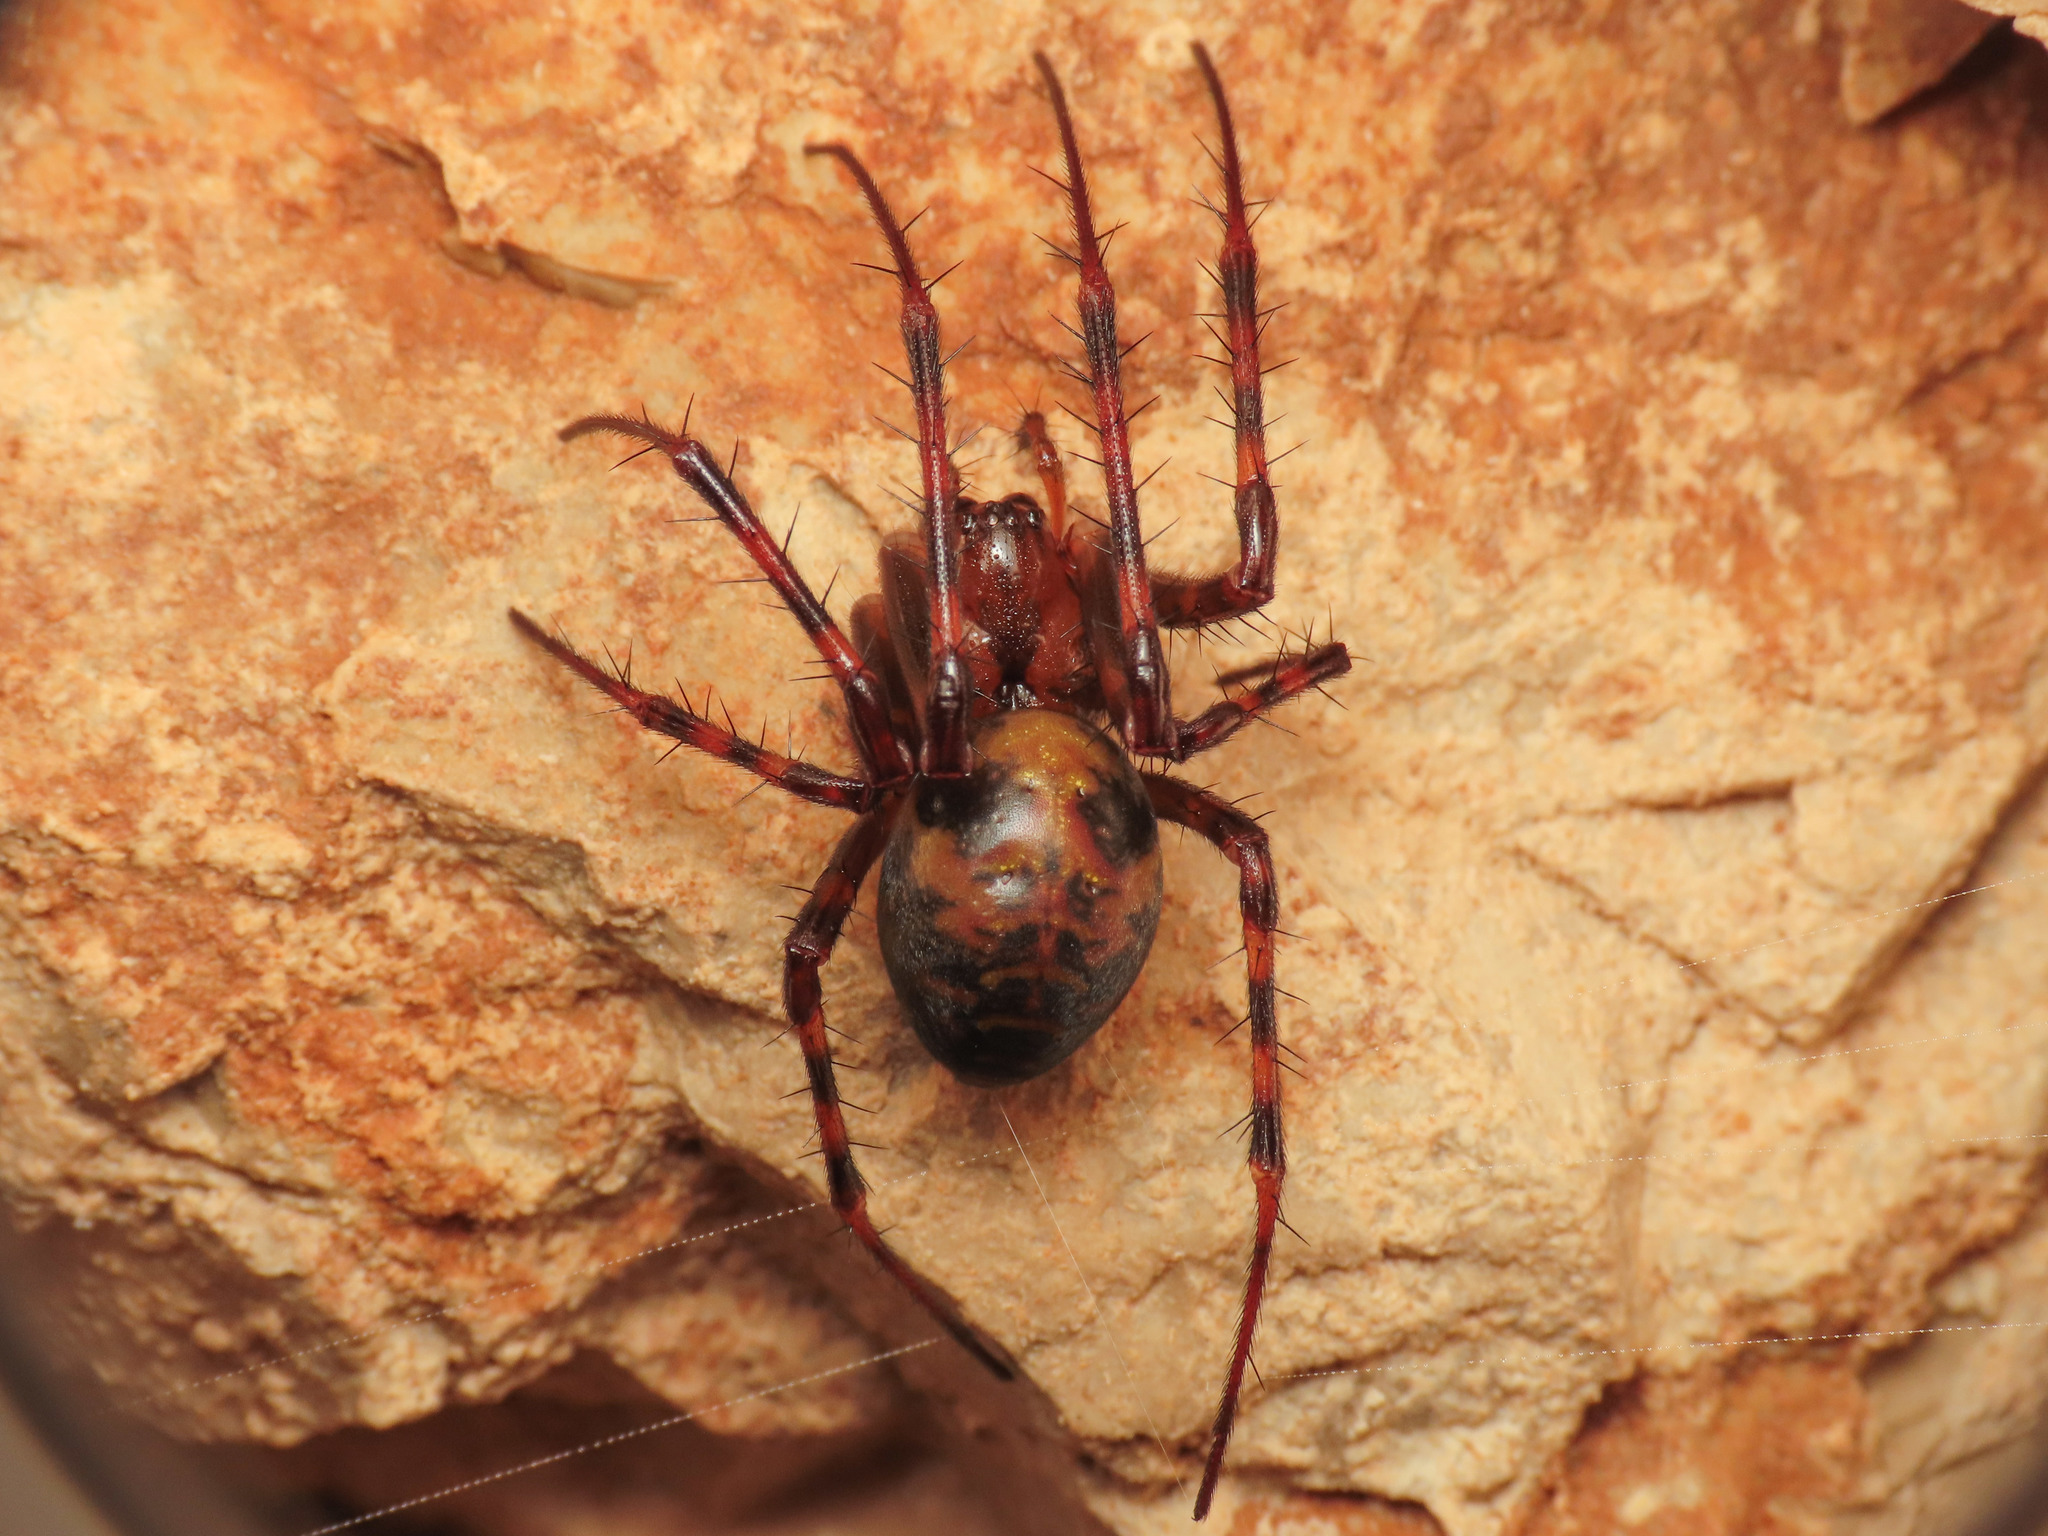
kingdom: Animalia
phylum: Arthropoda
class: Arachnida
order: Araneae
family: Tetragnathidae
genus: Meta
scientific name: Meta menardi
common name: Cave spider
